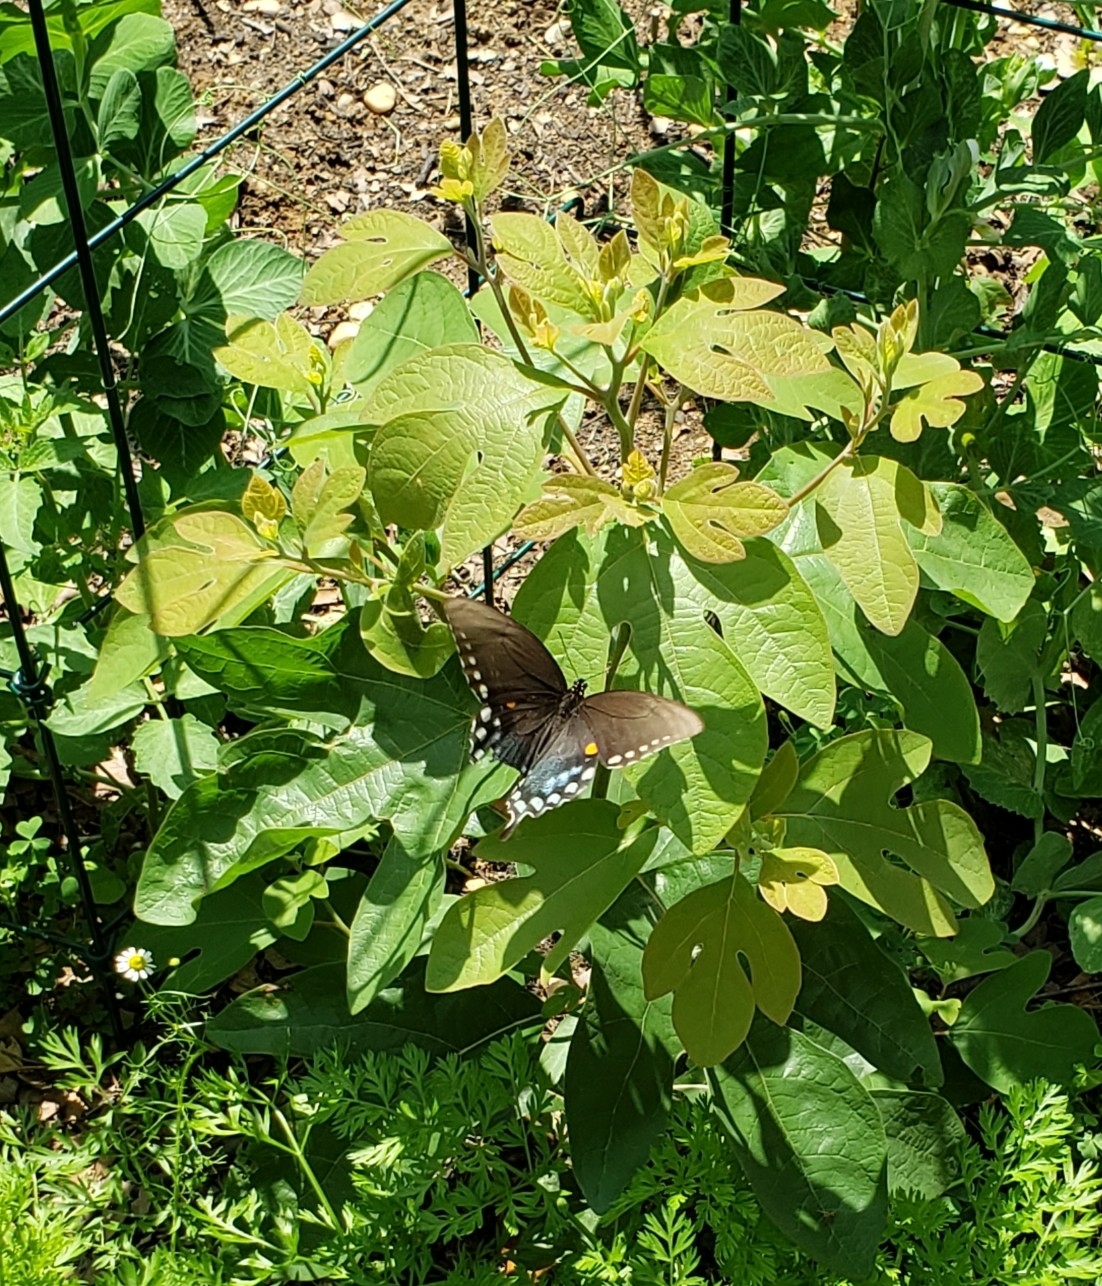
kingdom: Animalia
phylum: Arthropoda
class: Insecta
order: Lepidoptera
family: Papilionidae
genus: Papilio
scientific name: Papilio troilus
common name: Spicebush swallowtail
